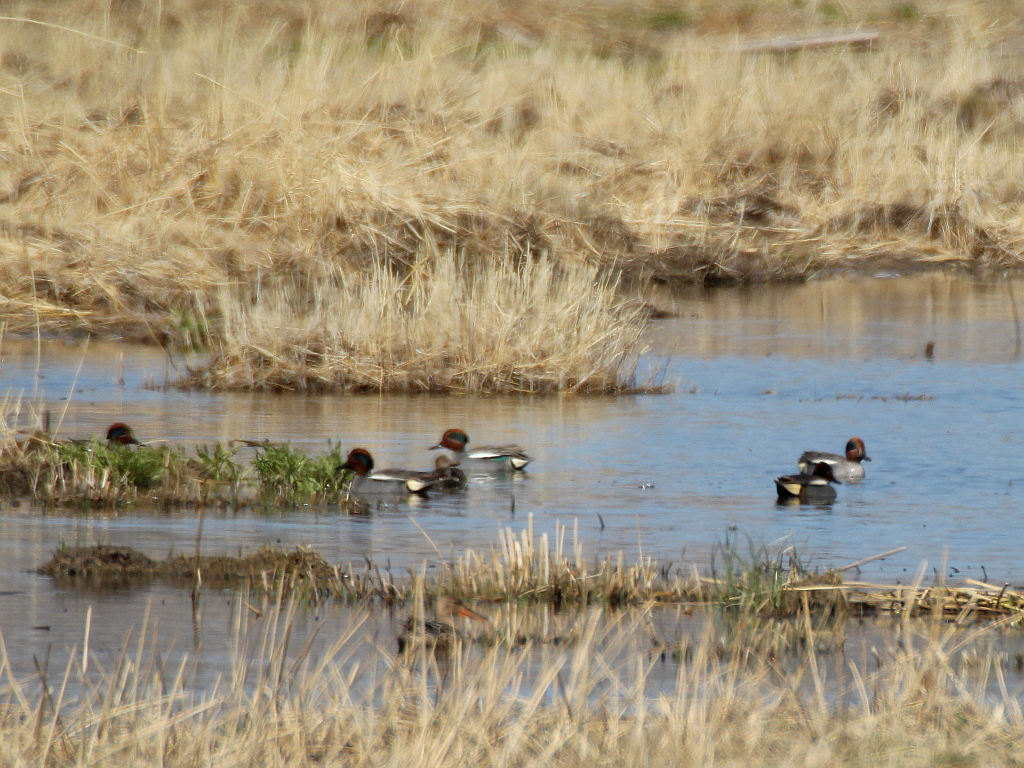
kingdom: Animalia
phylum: Chordata
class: Aves
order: Anseriformes
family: Anatidae
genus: Anas
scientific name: Anas crecca
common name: Eurasian teal
